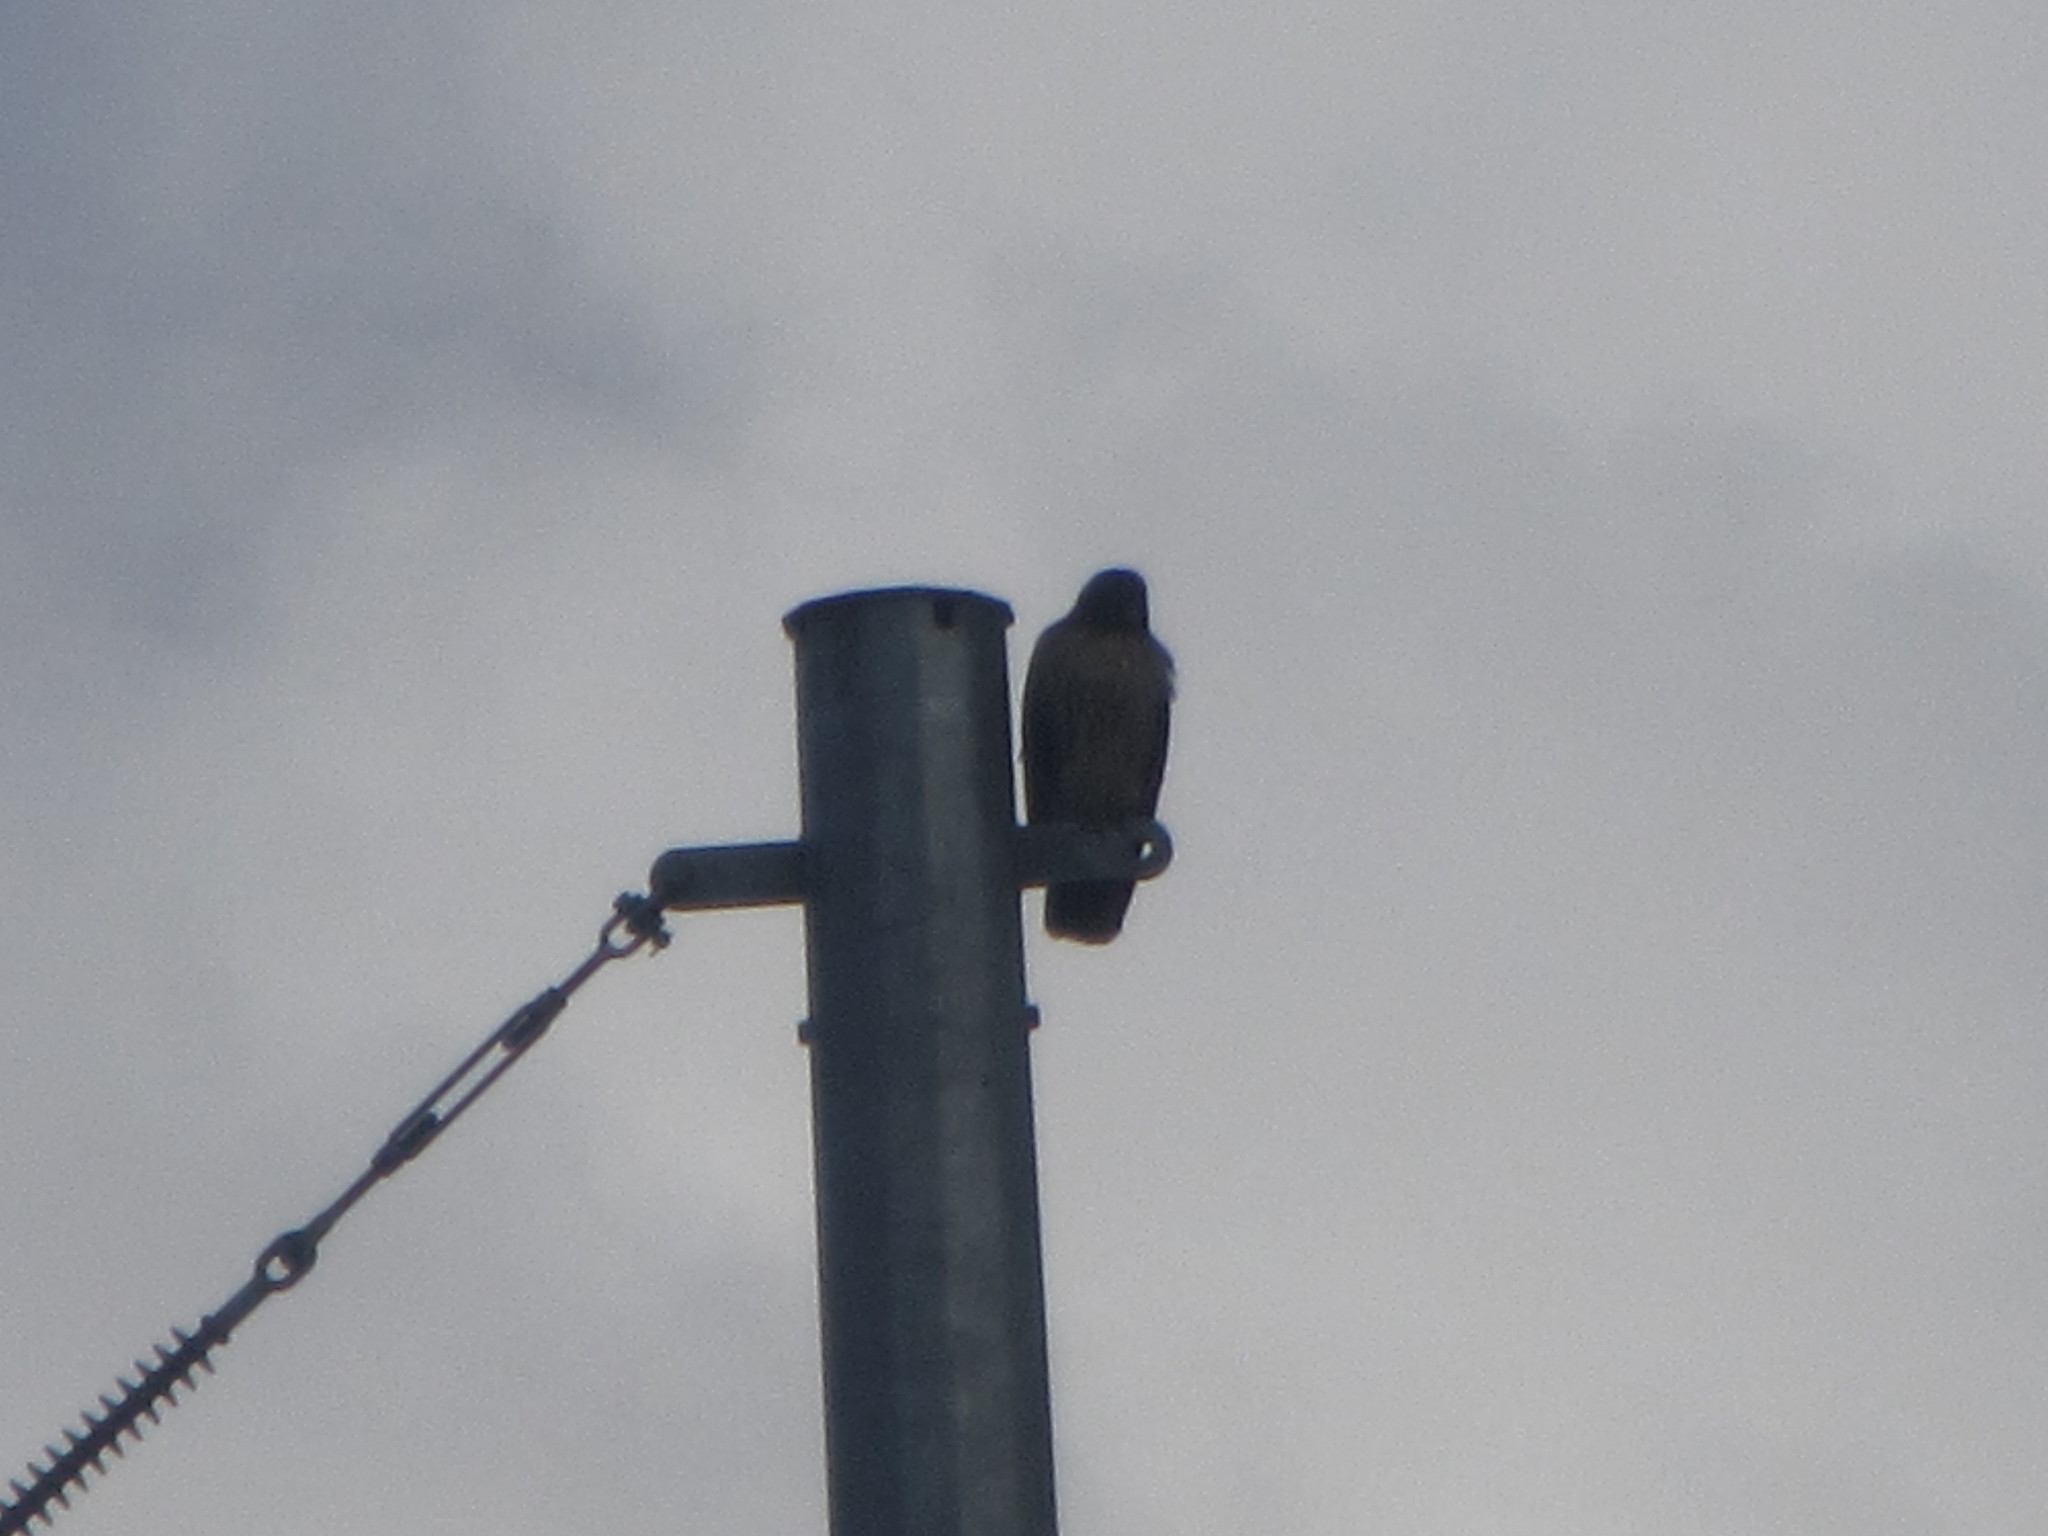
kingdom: Animalia
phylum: Chordata
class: Aves
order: Accipitriformes
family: Accipitridae
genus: Buteo
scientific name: Buteo jamaicensis
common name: Red-tailed hawk
